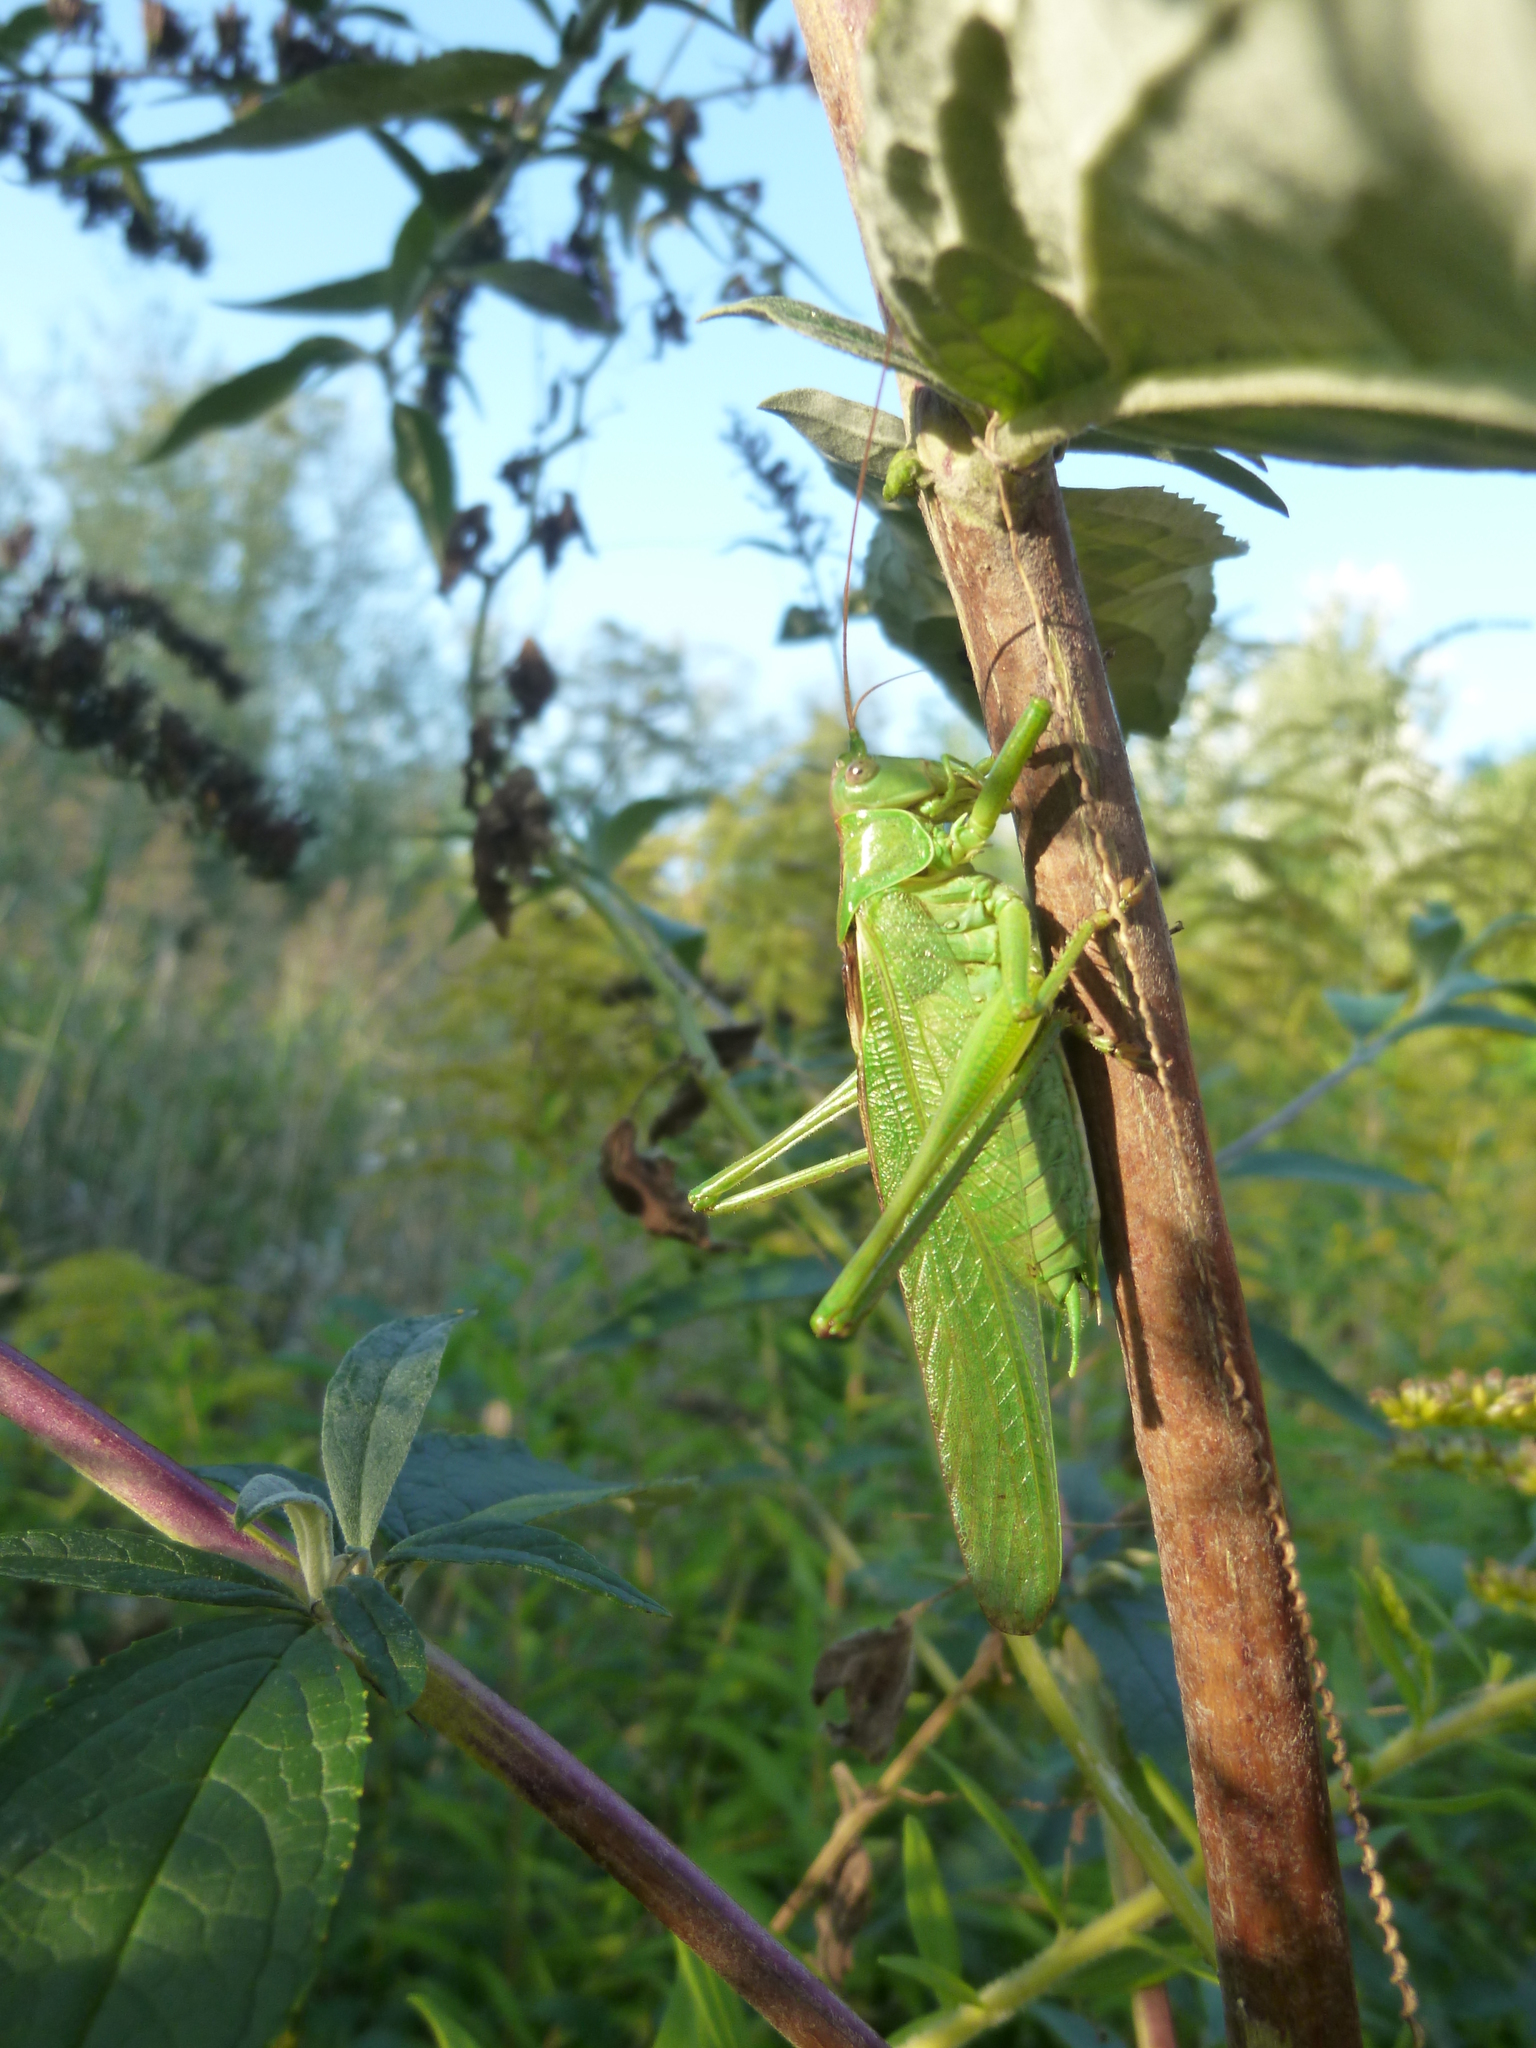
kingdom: Animalia
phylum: Arthropoda
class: Insecta
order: Orthoptera
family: Tettigoniidae
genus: Tettigonia
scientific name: Tettigonia viridissima
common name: Great green bush-cricket
